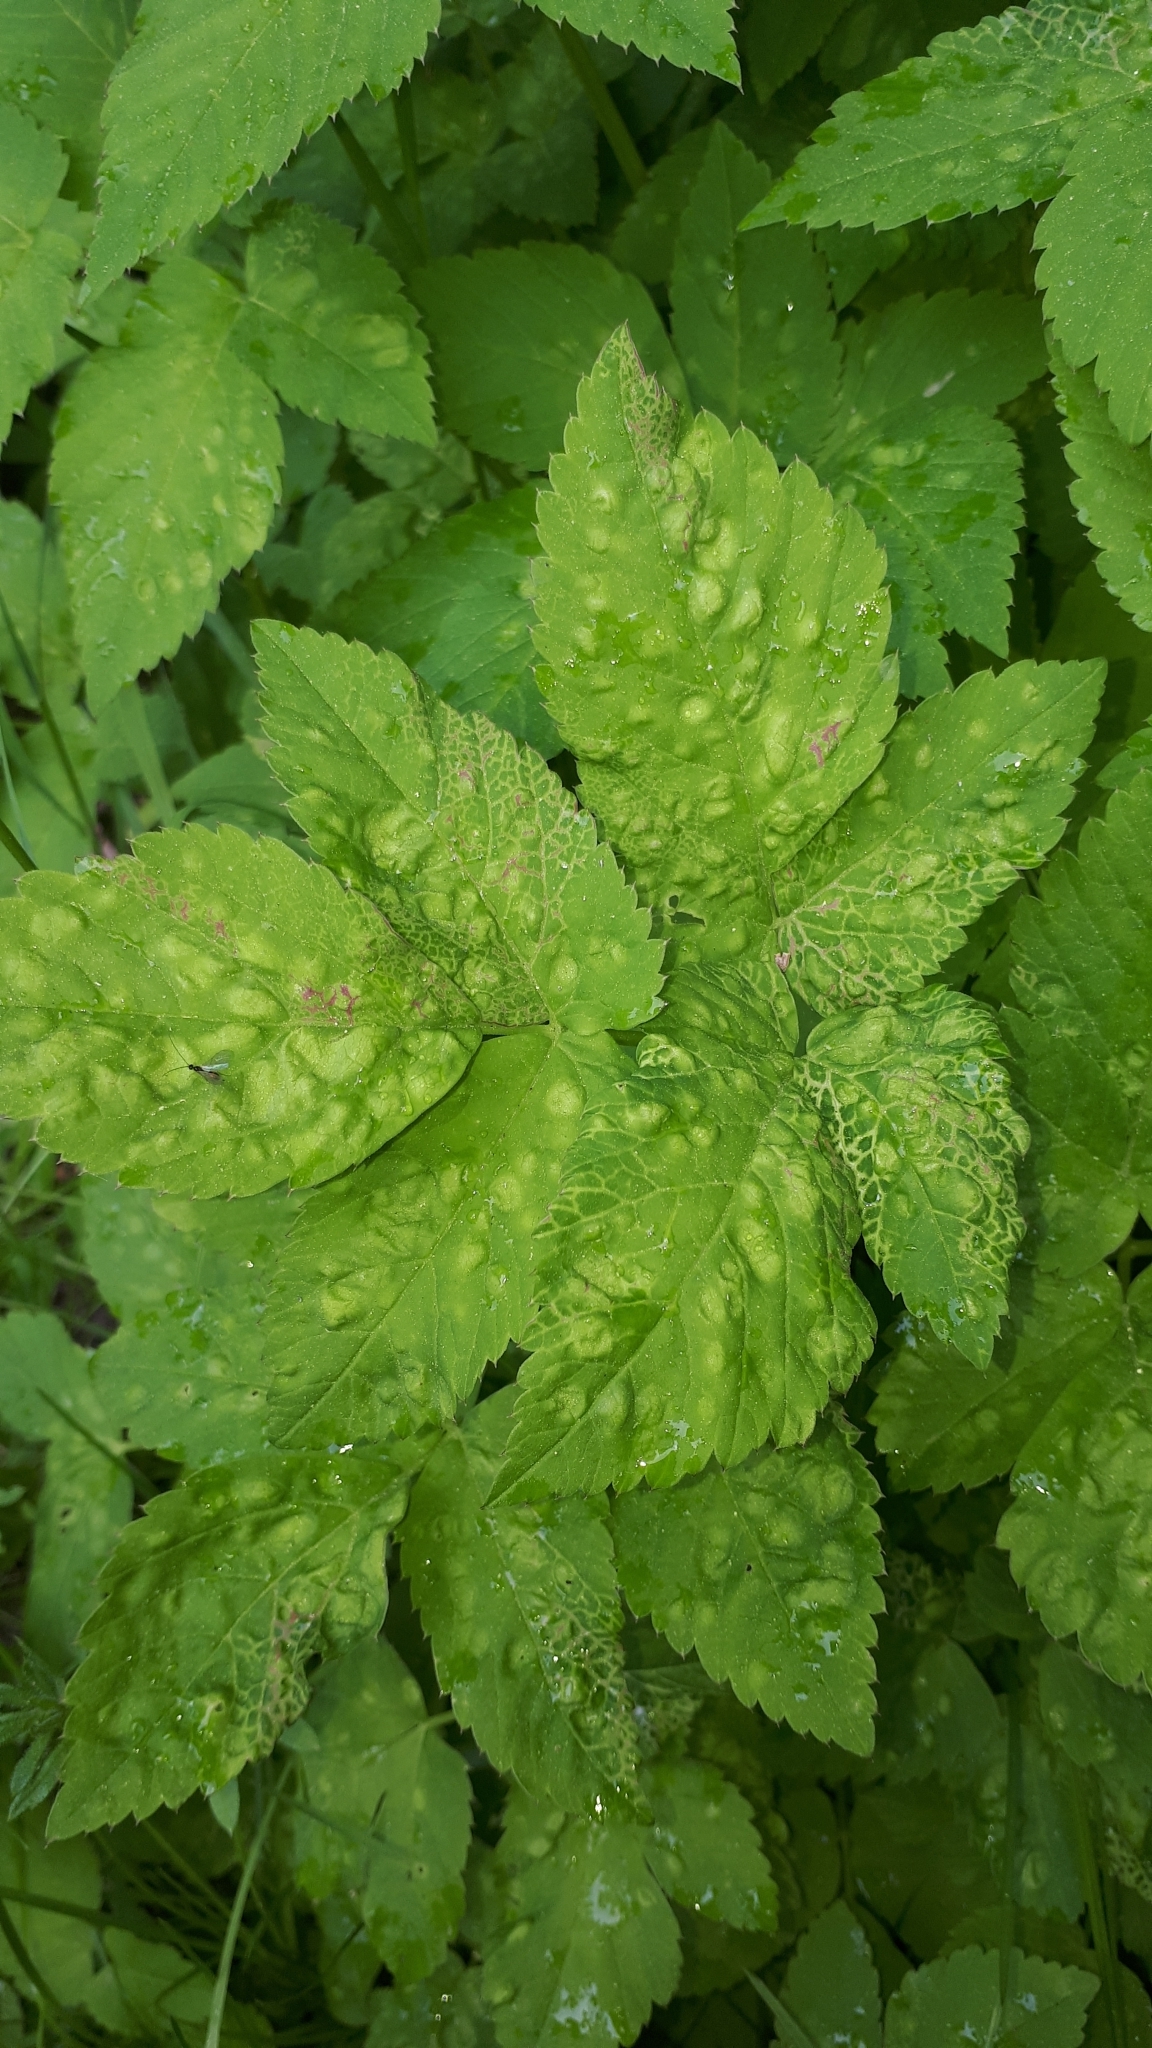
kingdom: Animalia
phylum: Arthropoda
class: Insecta
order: Hemiptera
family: Triozidae
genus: Trioza
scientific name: Trioza flavipennis
